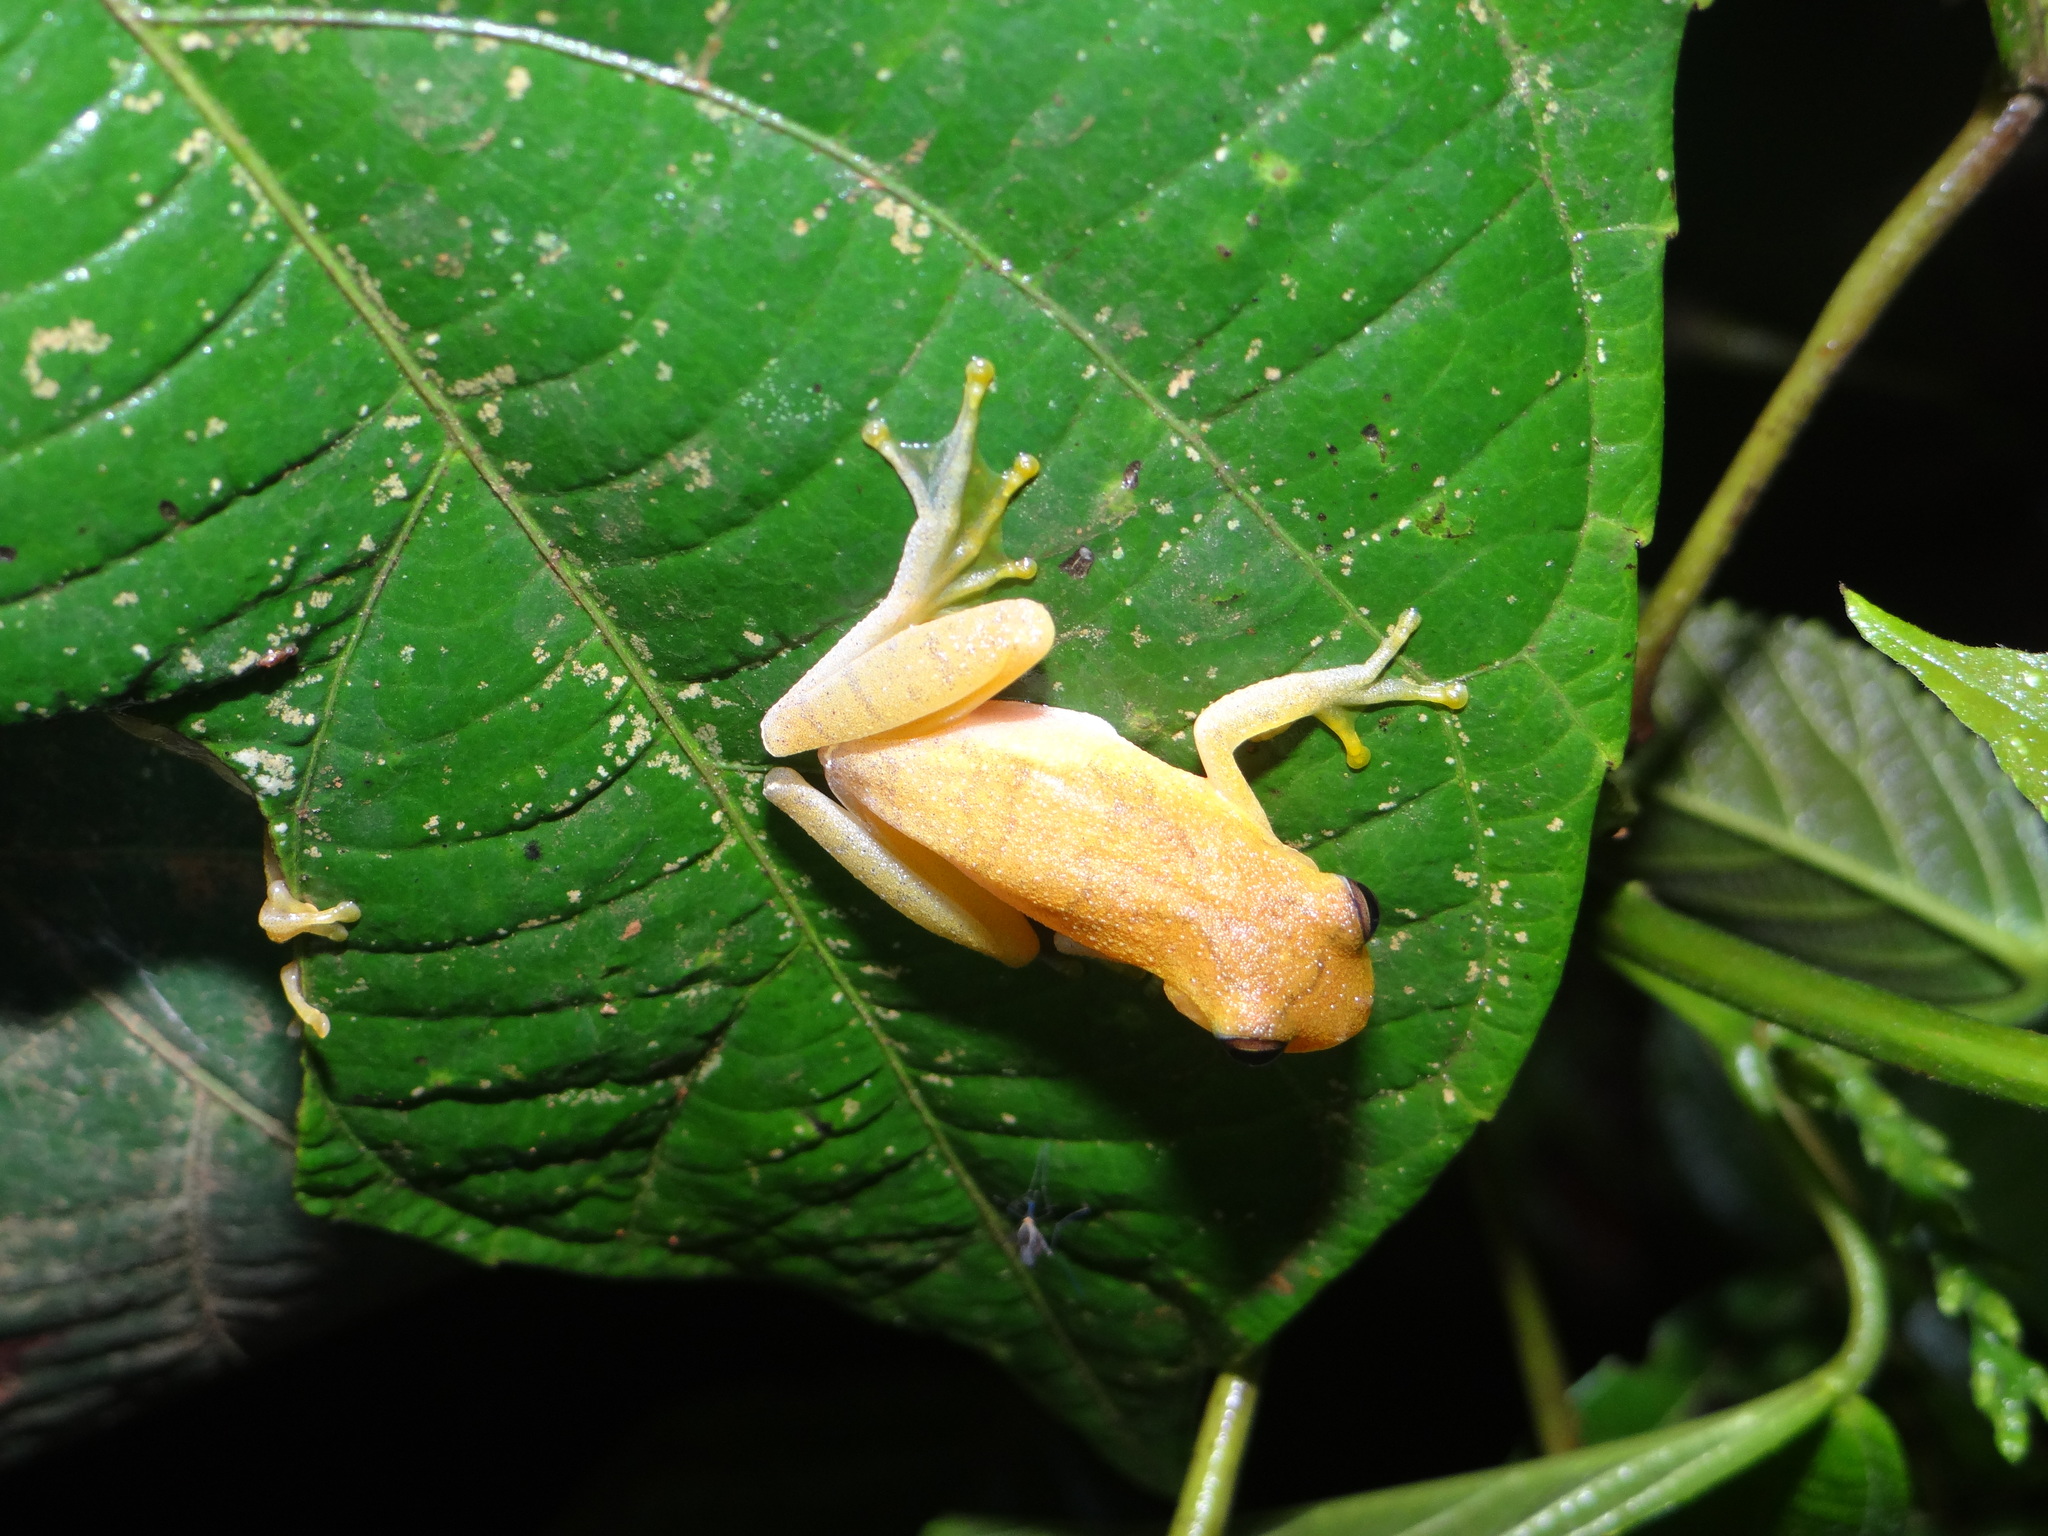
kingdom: Animalia
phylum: Chordata
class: Amphibia
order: Anura
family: Hylidae
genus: Dendropsophus
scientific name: Dendropsophus leali
